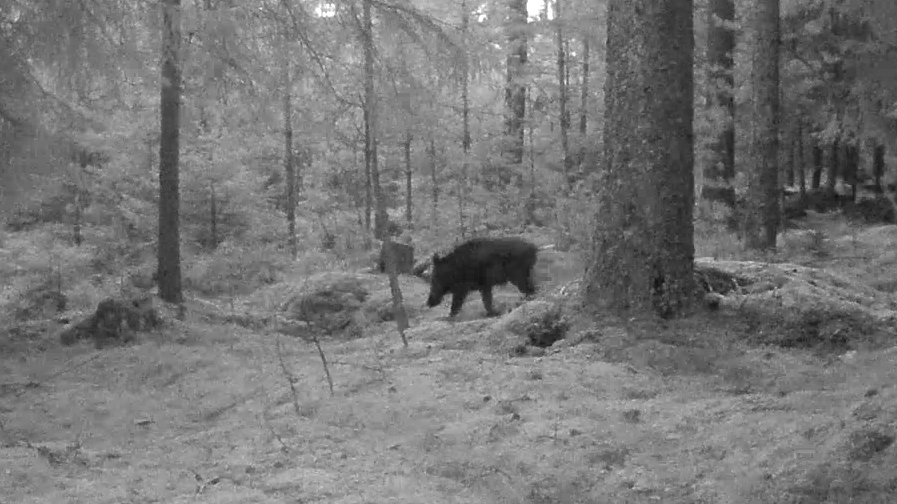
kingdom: Animalia
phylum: Chordata
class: Mammalia
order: Artiodactyla
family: Suidae
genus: Sus
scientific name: Sus scrofa
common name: Wild boar
